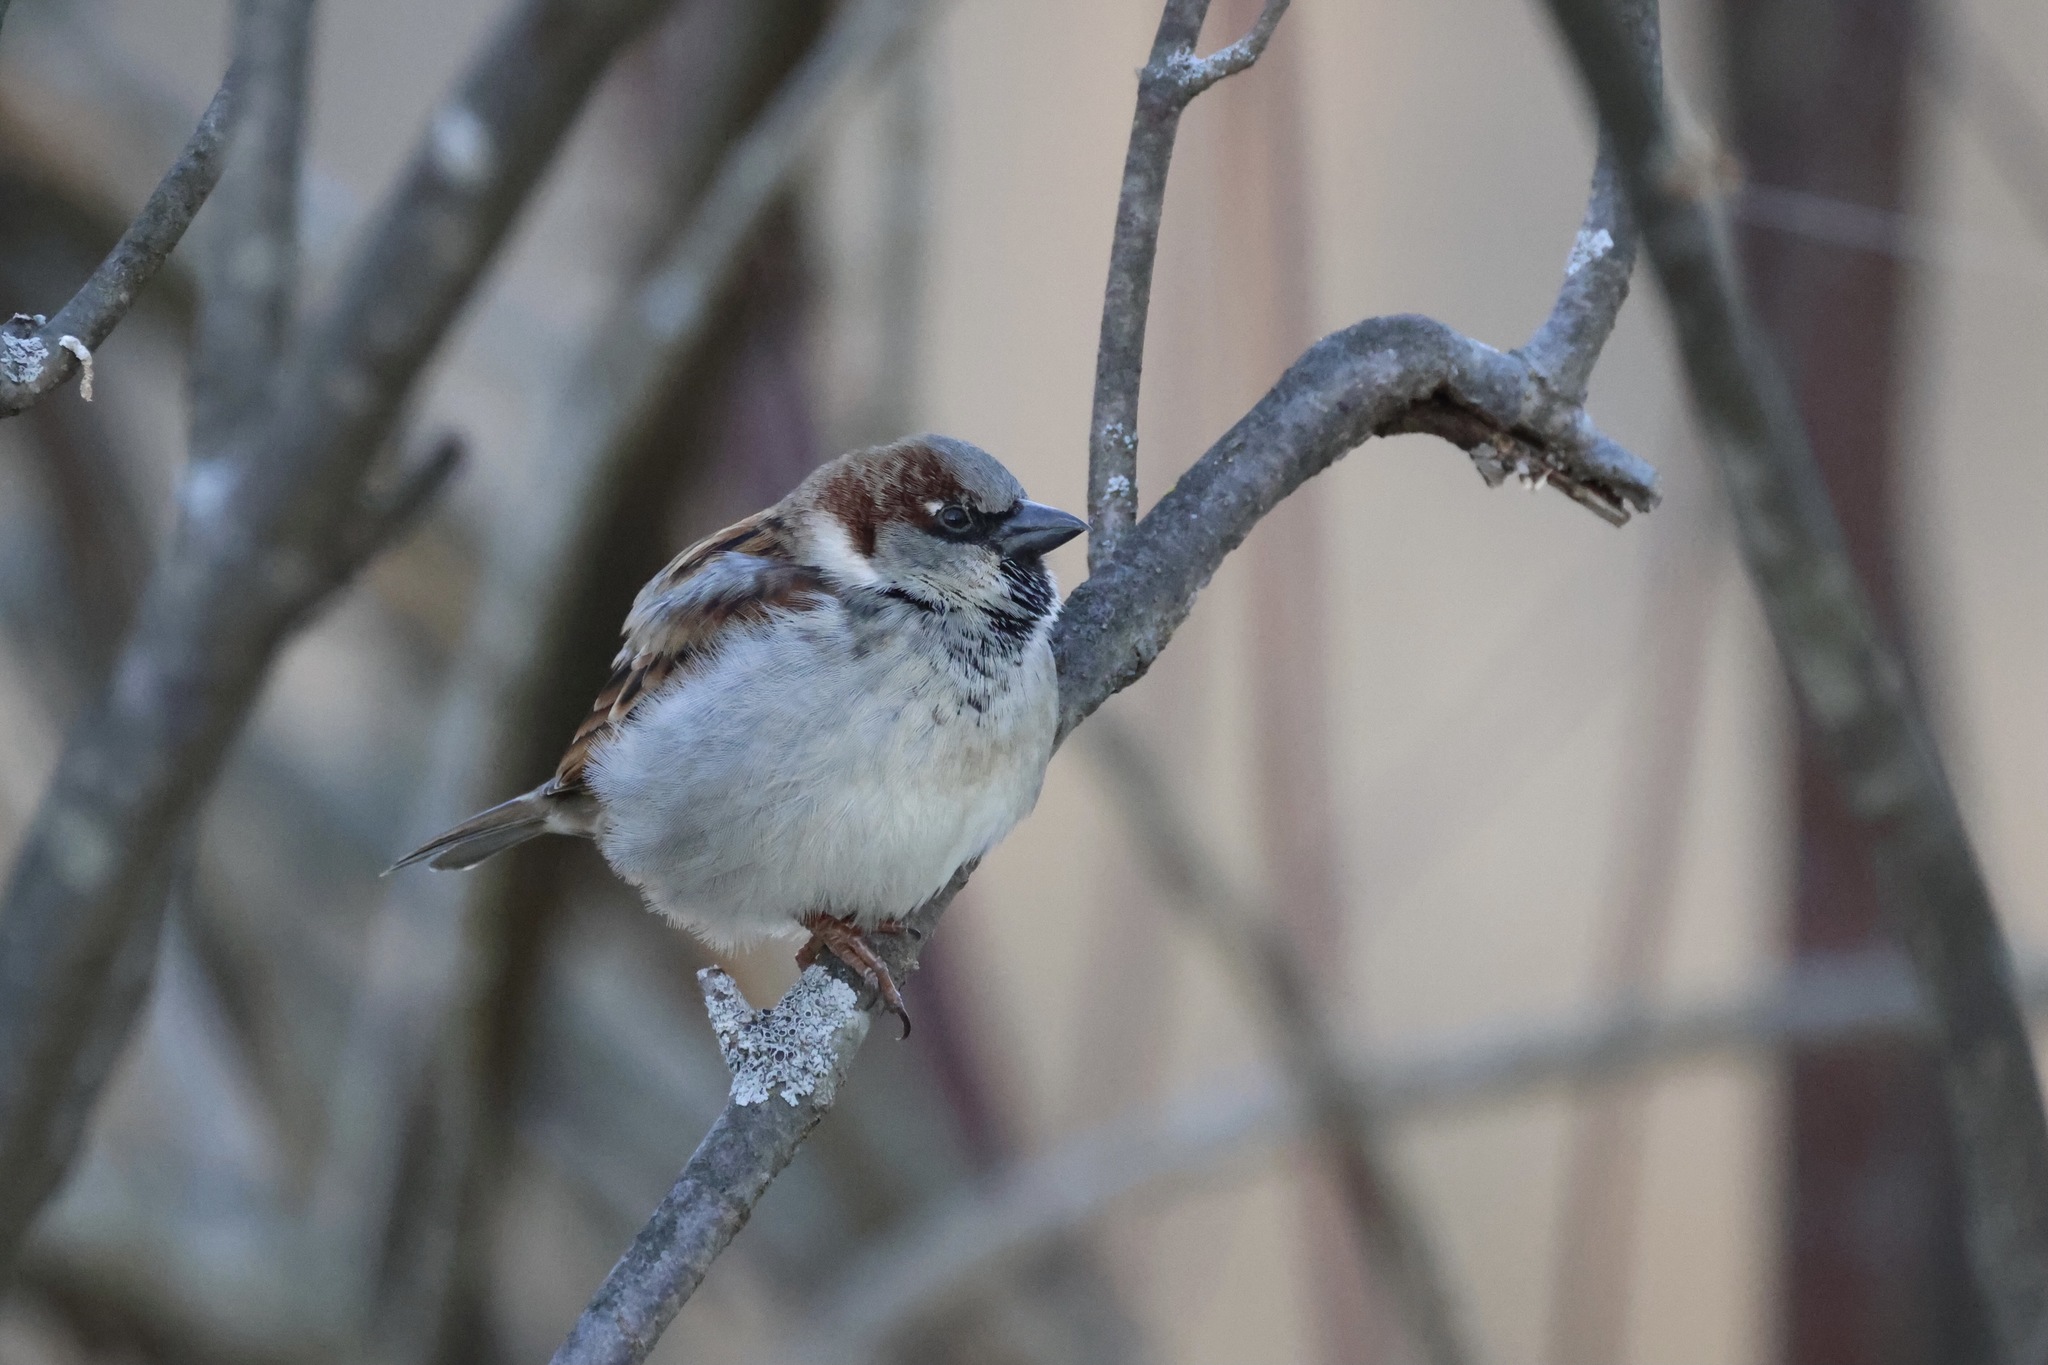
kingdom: Animalia
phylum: Chordata
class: Aves
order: Passeriformes
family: Passeridae
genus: Passer
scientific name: Passer domesticus
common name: House sparrow
